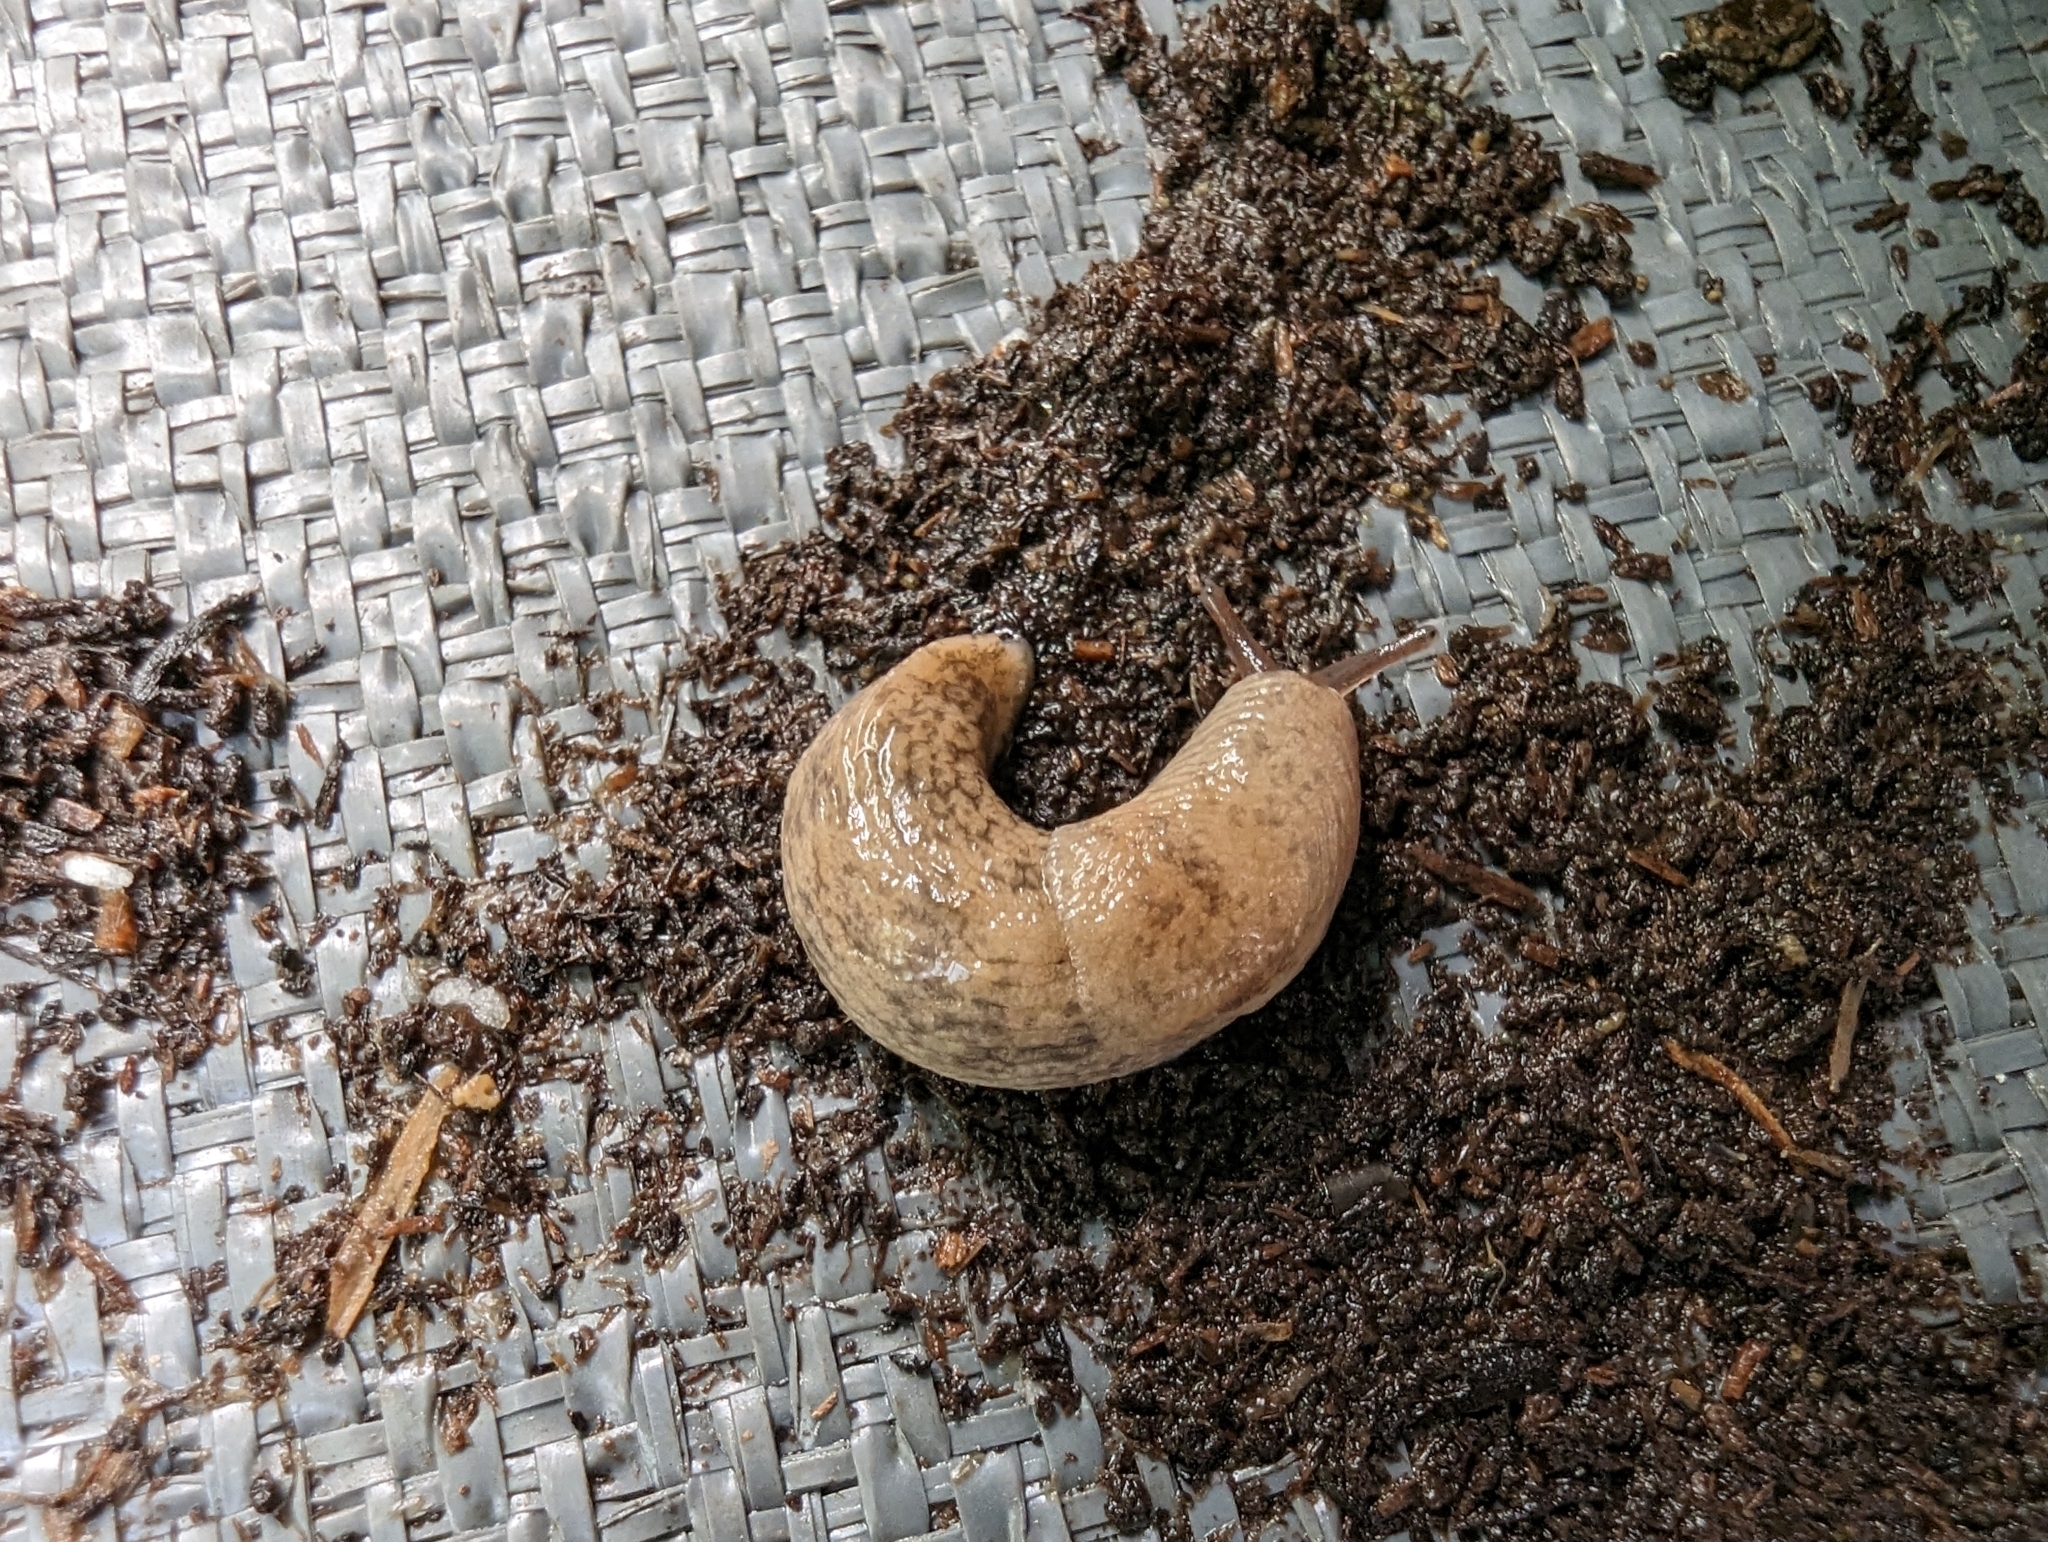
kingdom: Animalia
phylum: Mollusca
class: Gastropoda
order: Stylommatophora
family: Agriolimacidae
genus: Deroceras
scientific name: Deroceras reticulatum
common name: Gray field slug
